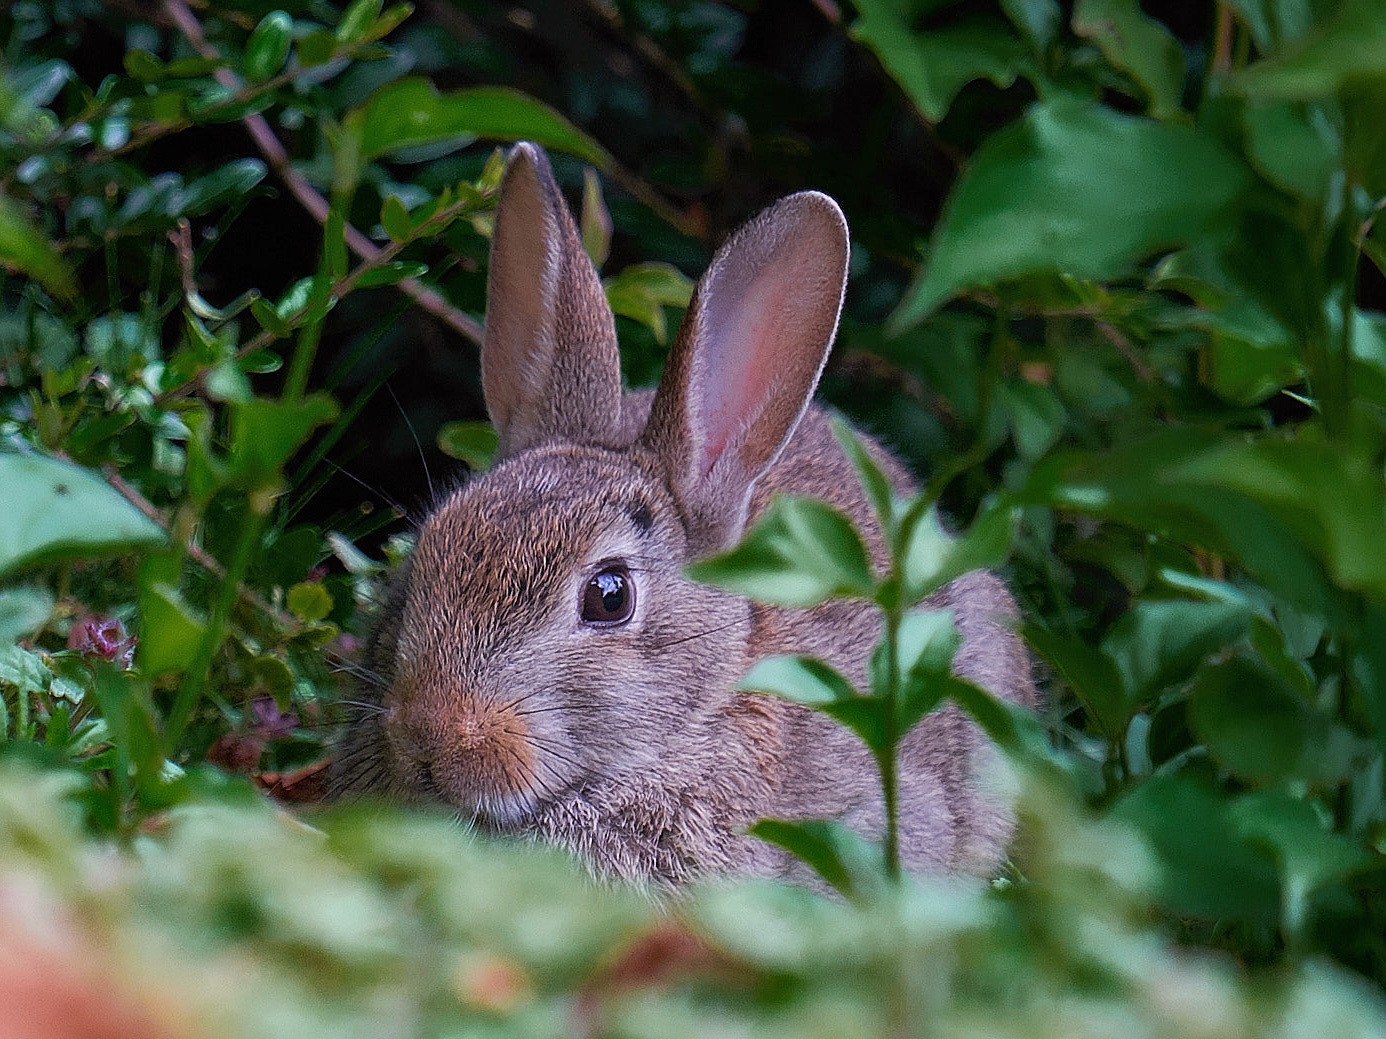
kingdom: Animalia
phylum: Chordata
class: Mammalia
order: Lagomorpha
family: Leporidae
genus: Oryctolagus
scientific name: Oryctolagus cuniculus
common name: European rabbit
